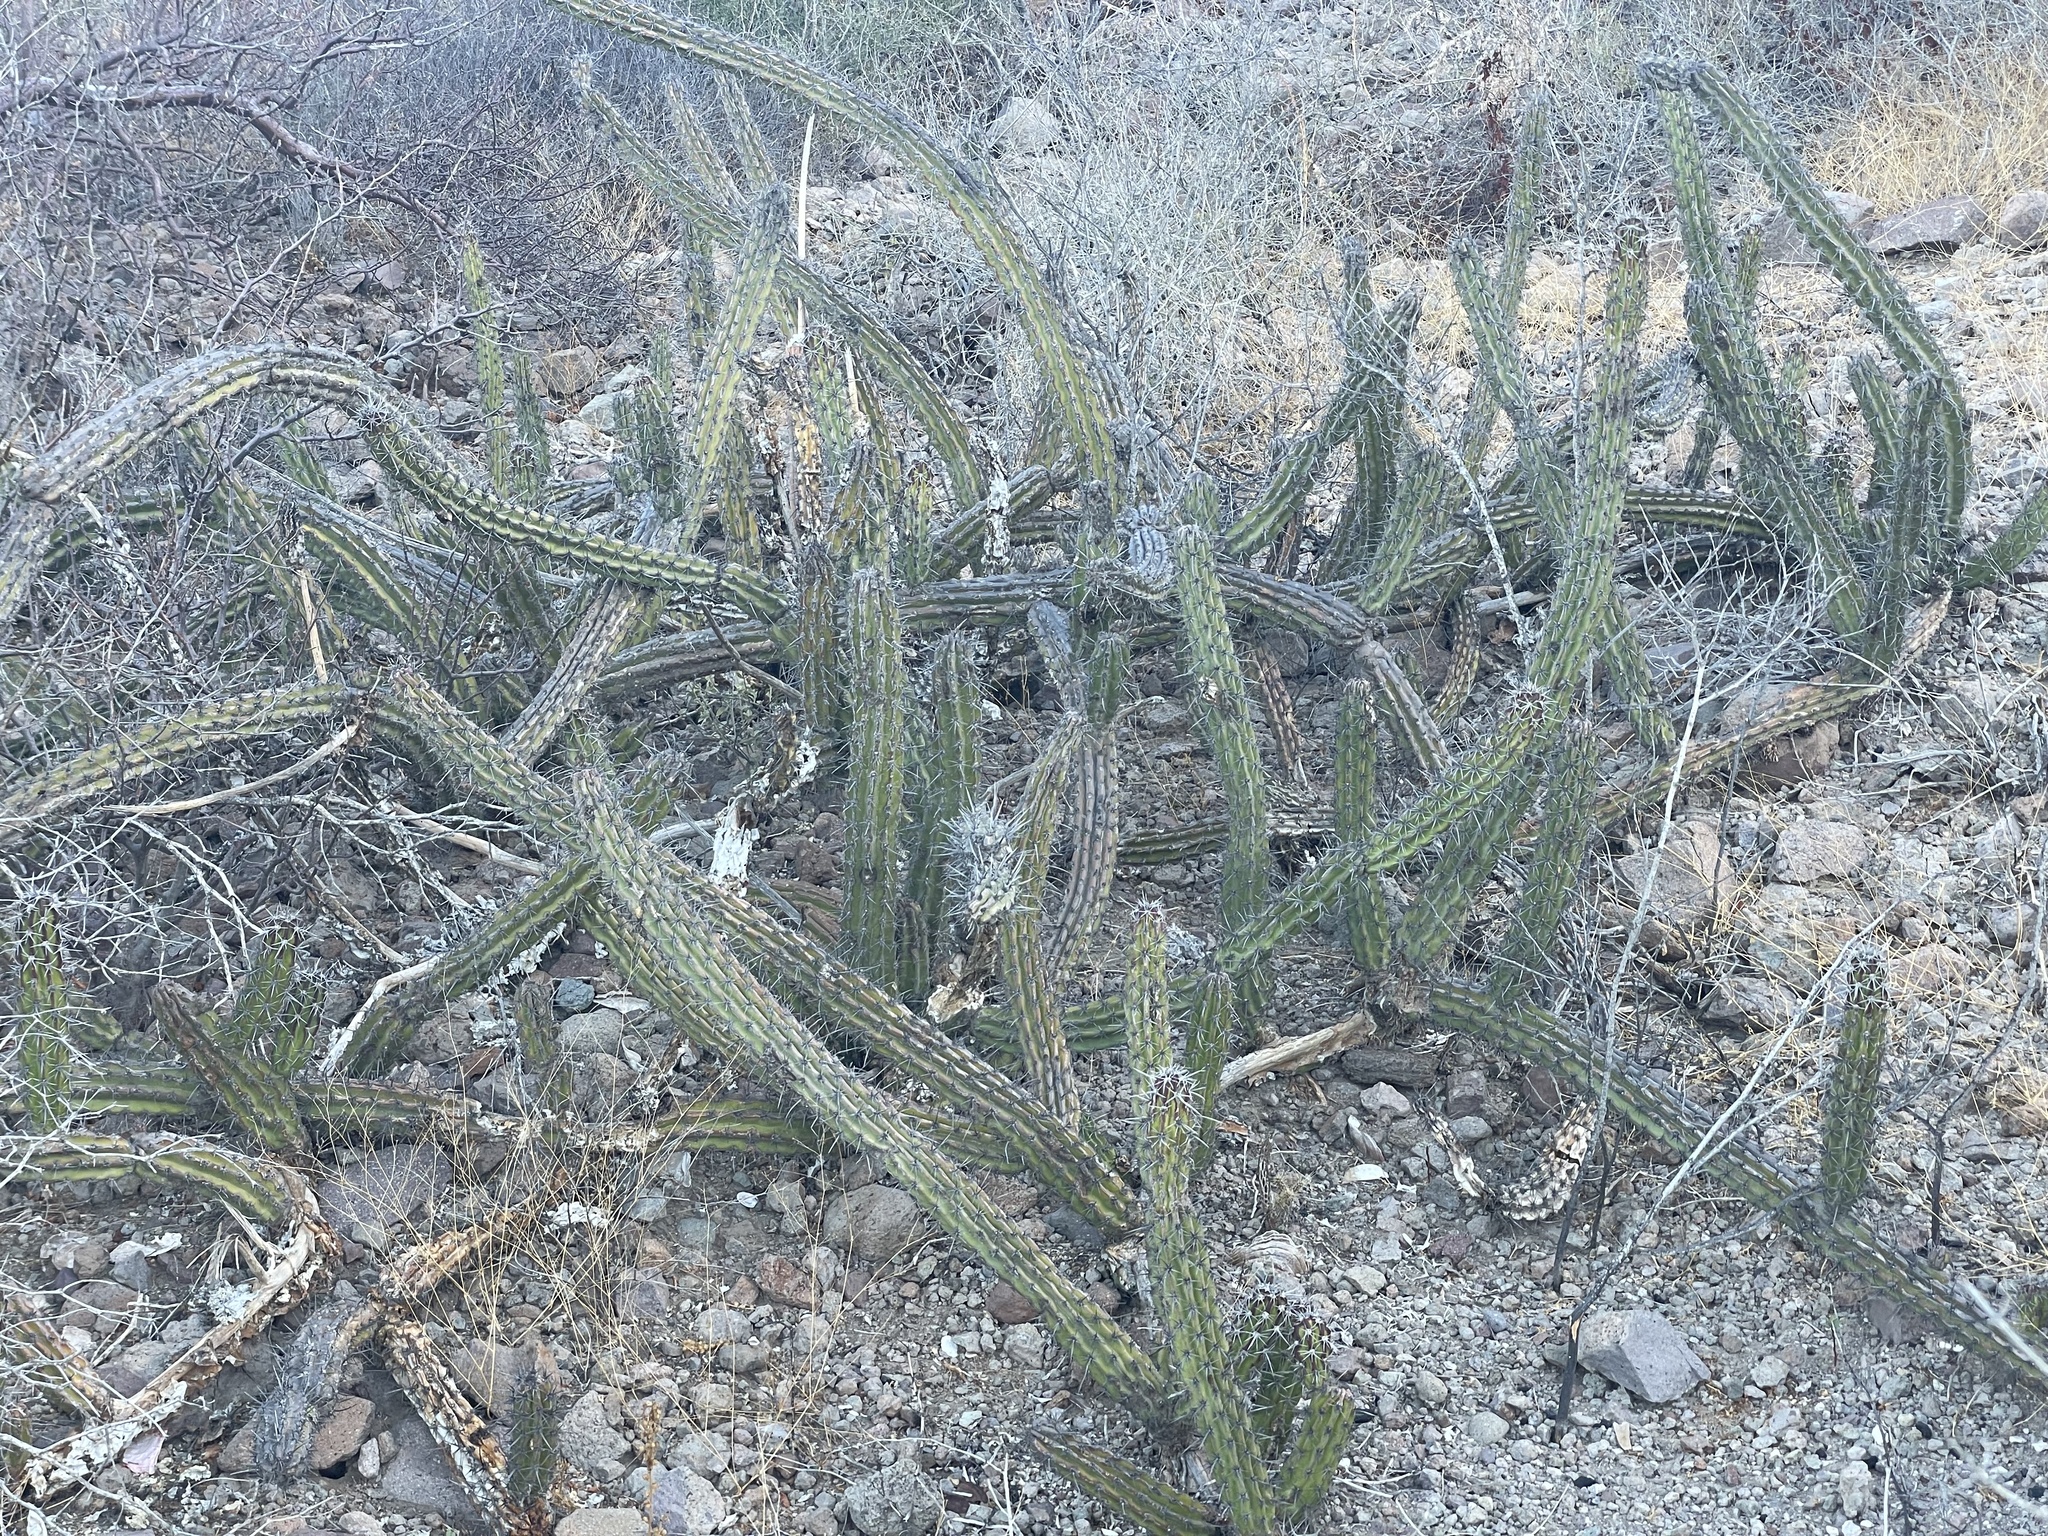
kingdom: Plantae
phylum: Tracheophyta
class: Magnoliopsida
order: Caryophyllales
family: Cactaceae
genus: Stenocereus
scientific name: Stenocereus gummosus
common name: Dagger cactus
